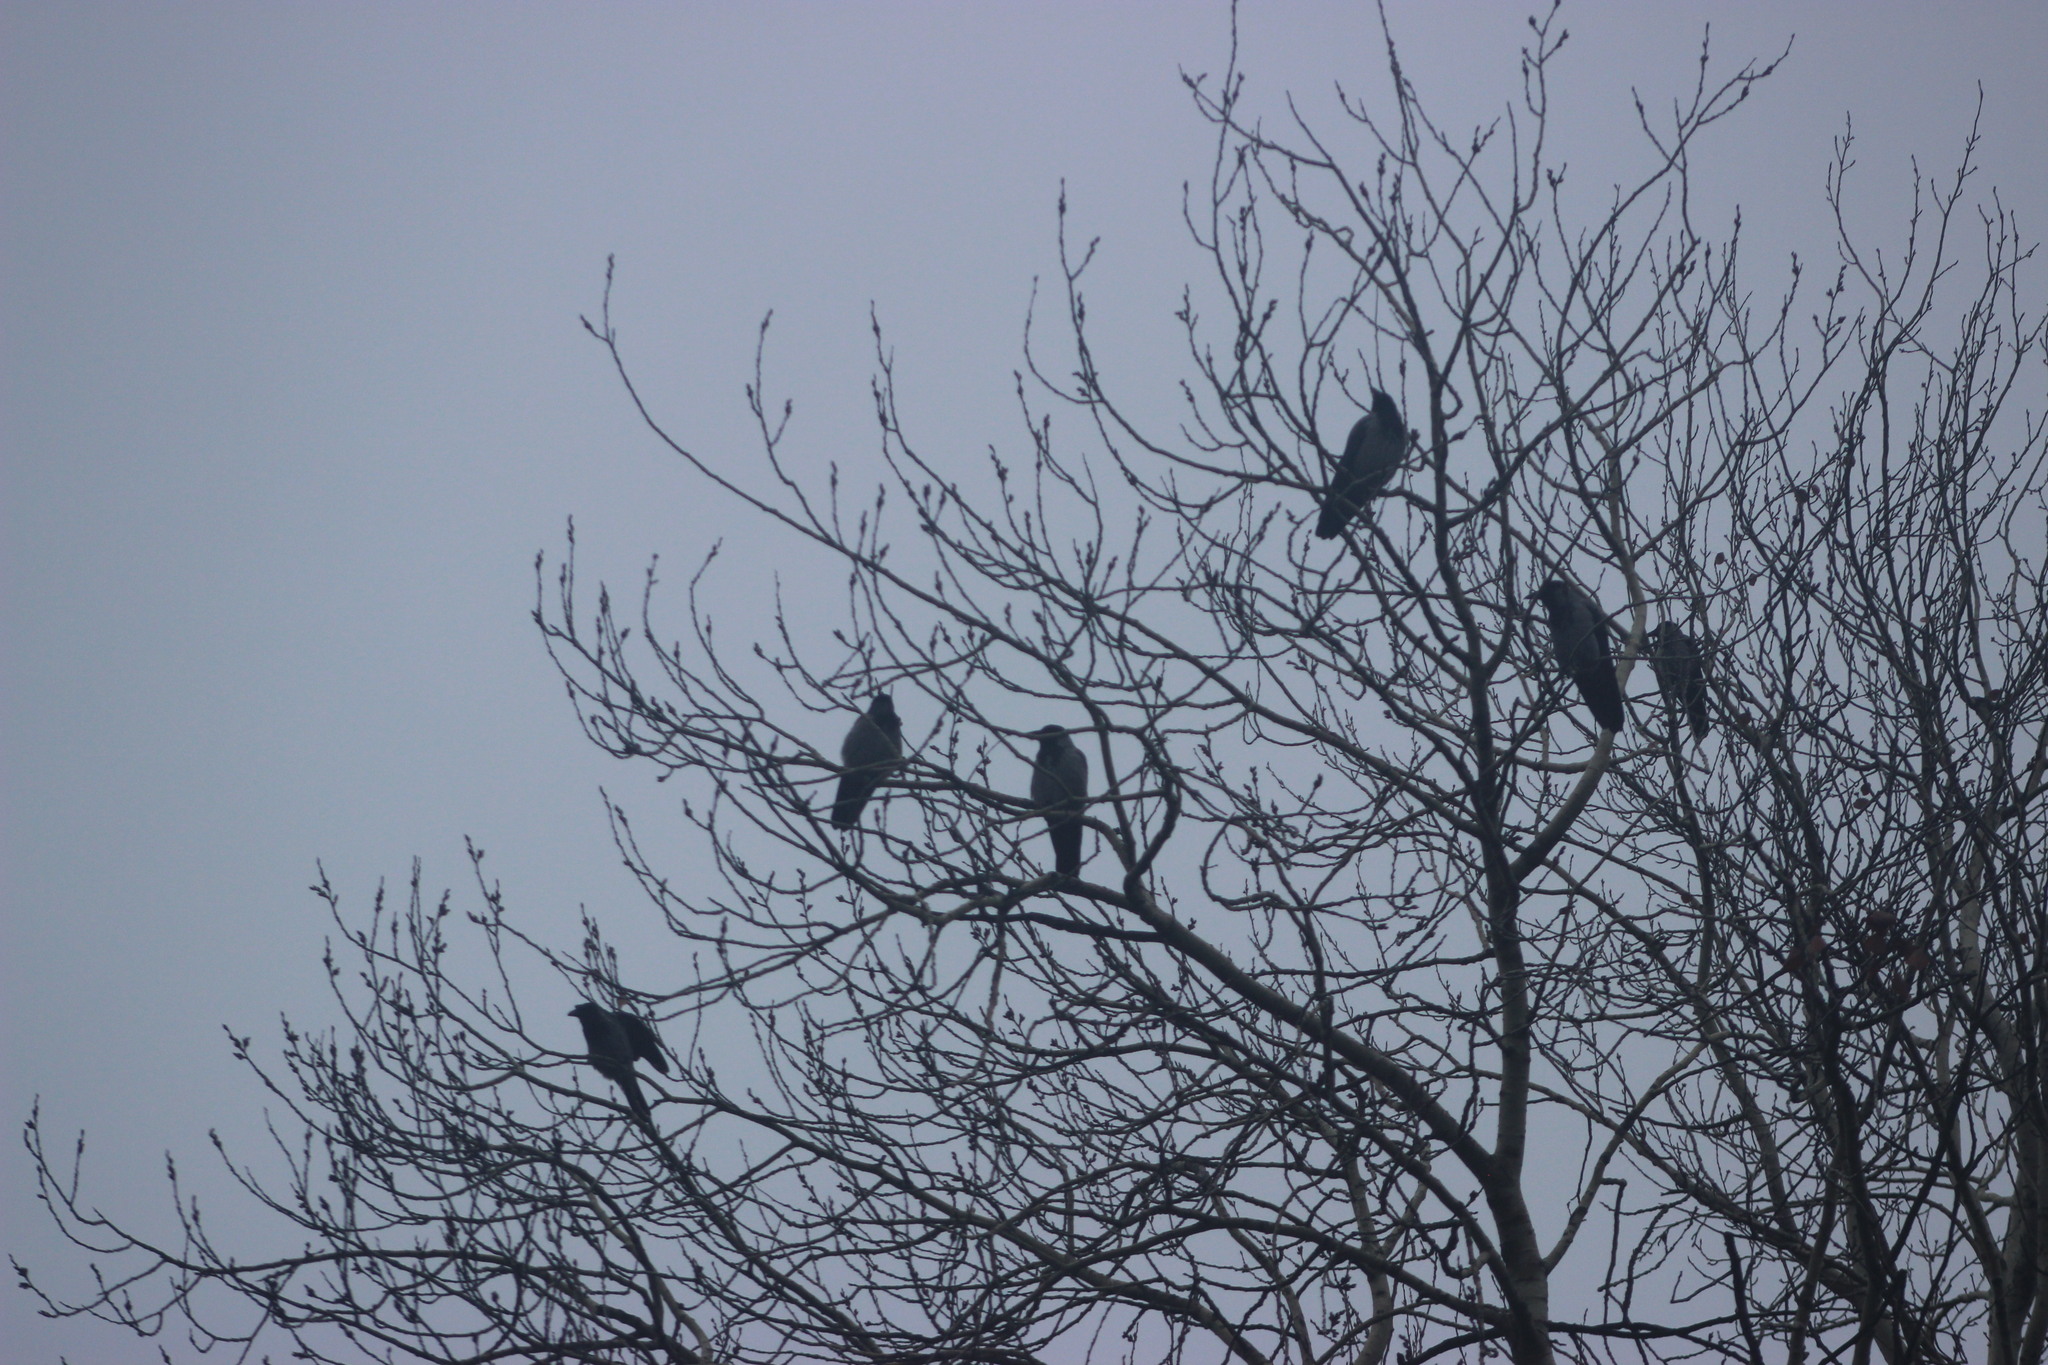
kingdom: Animalia
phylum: Chordata
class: Aves
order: Passeriformes
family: Corvidae
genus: Corvus
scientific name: Corvus cornix
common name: Hooded crow
